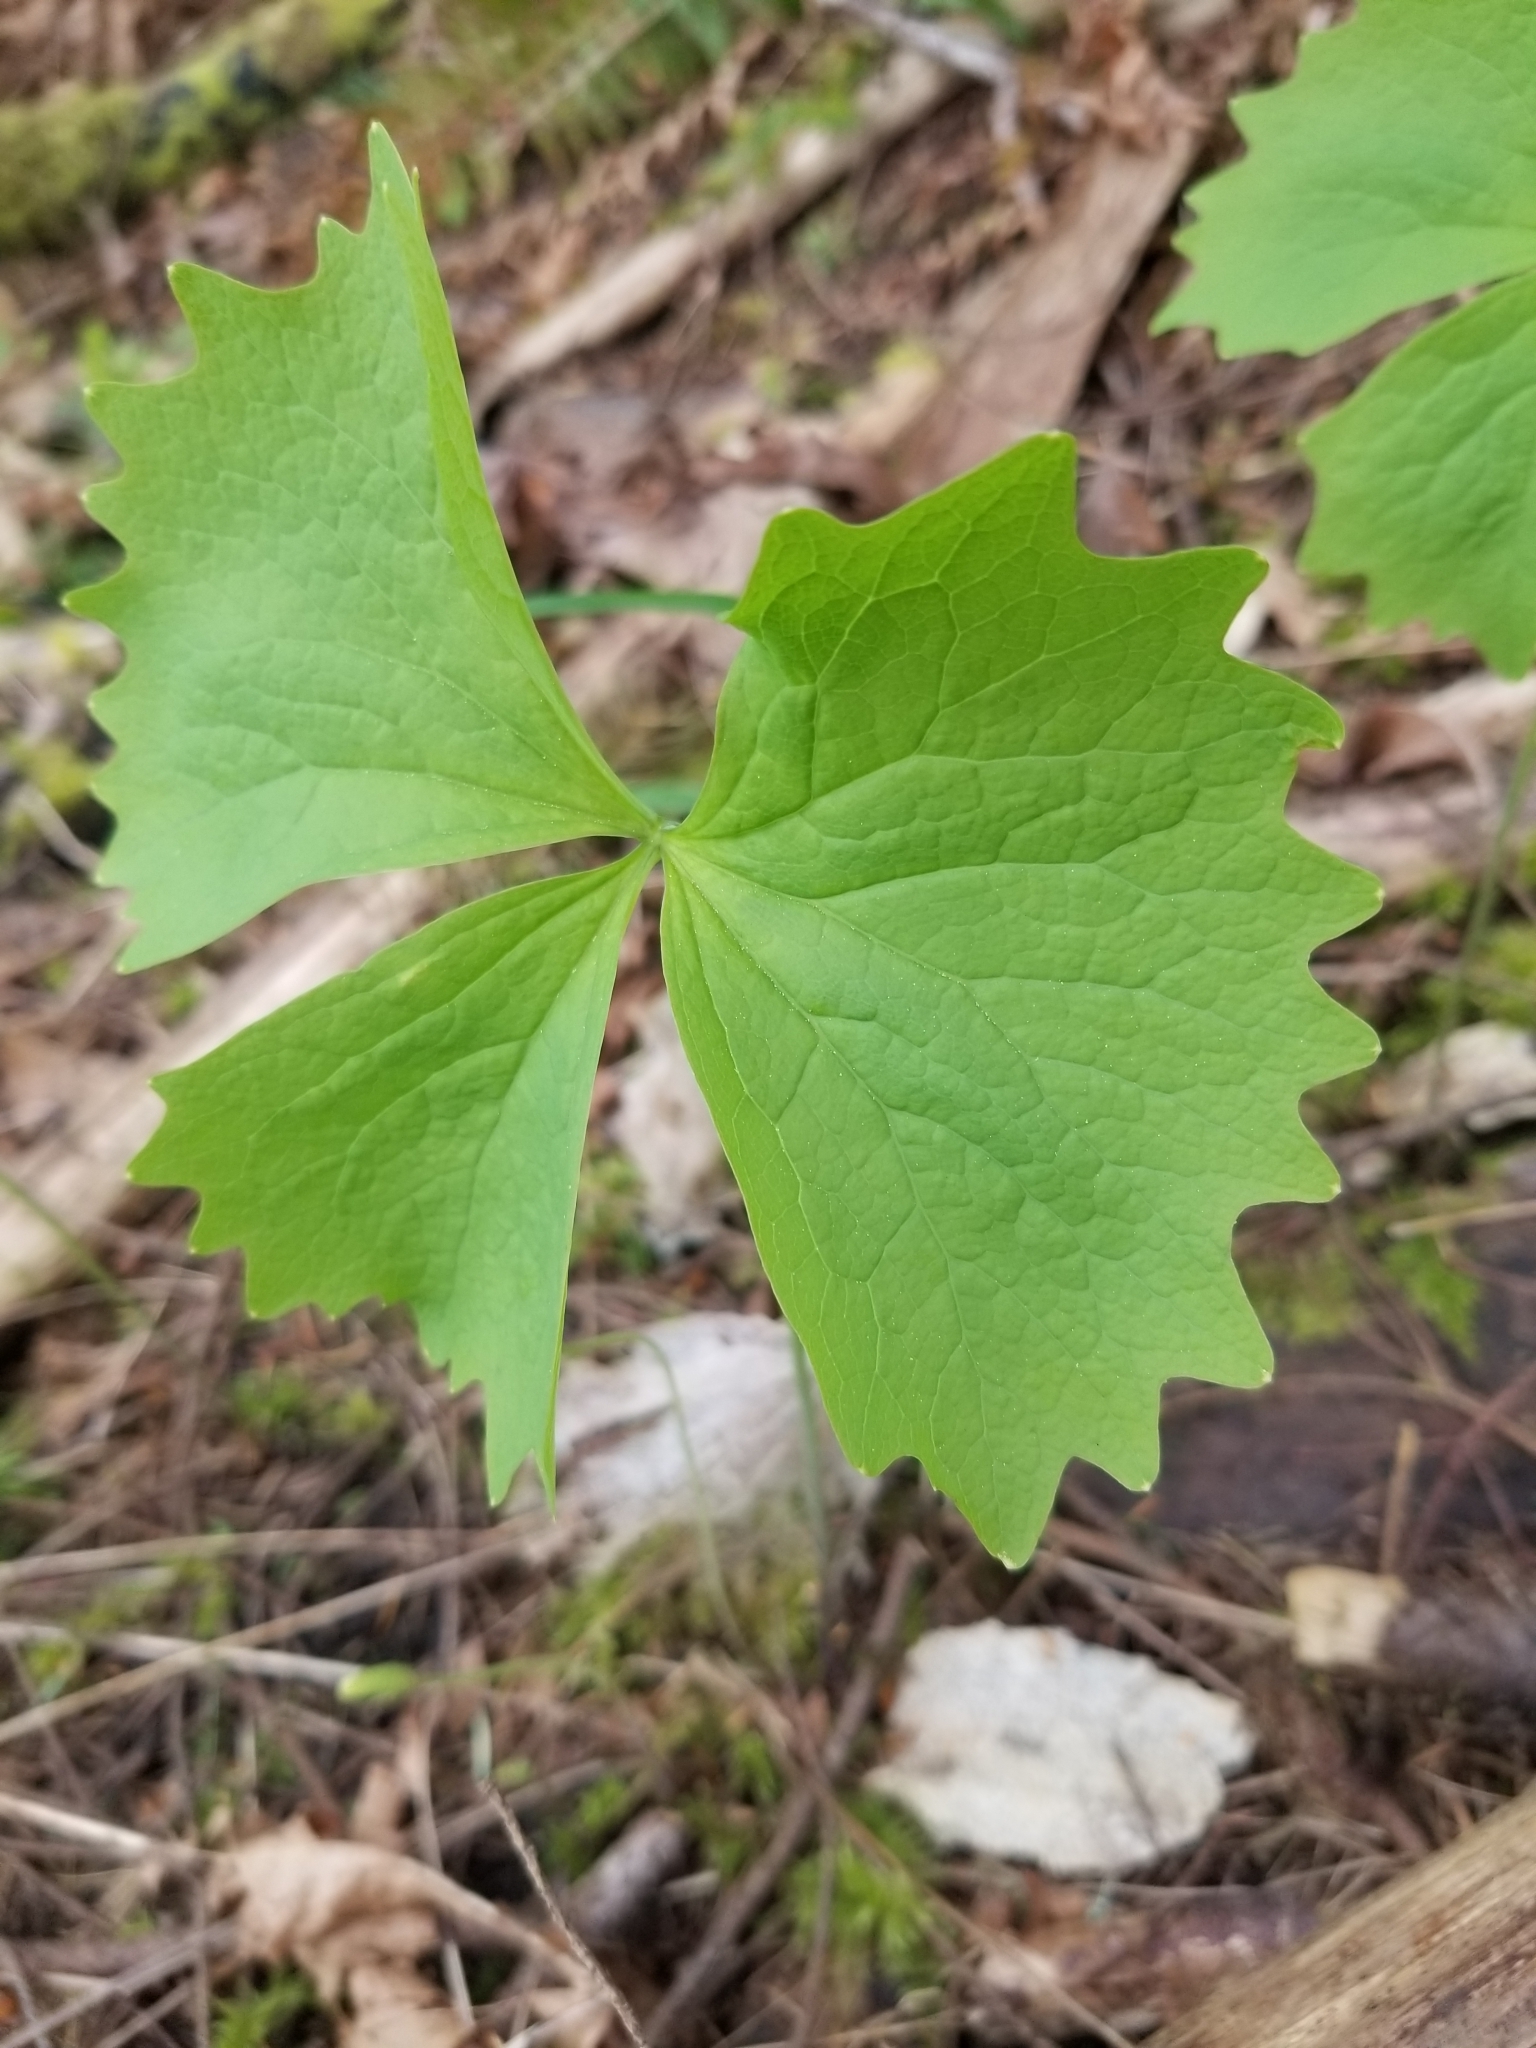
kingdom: Plantae
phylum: Tracheophyta
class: Magnoliopsida
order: Ranunculales
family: Berberidaceae
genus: Achlys
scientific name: Achlys triphylla
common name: Vanilla-leaf
